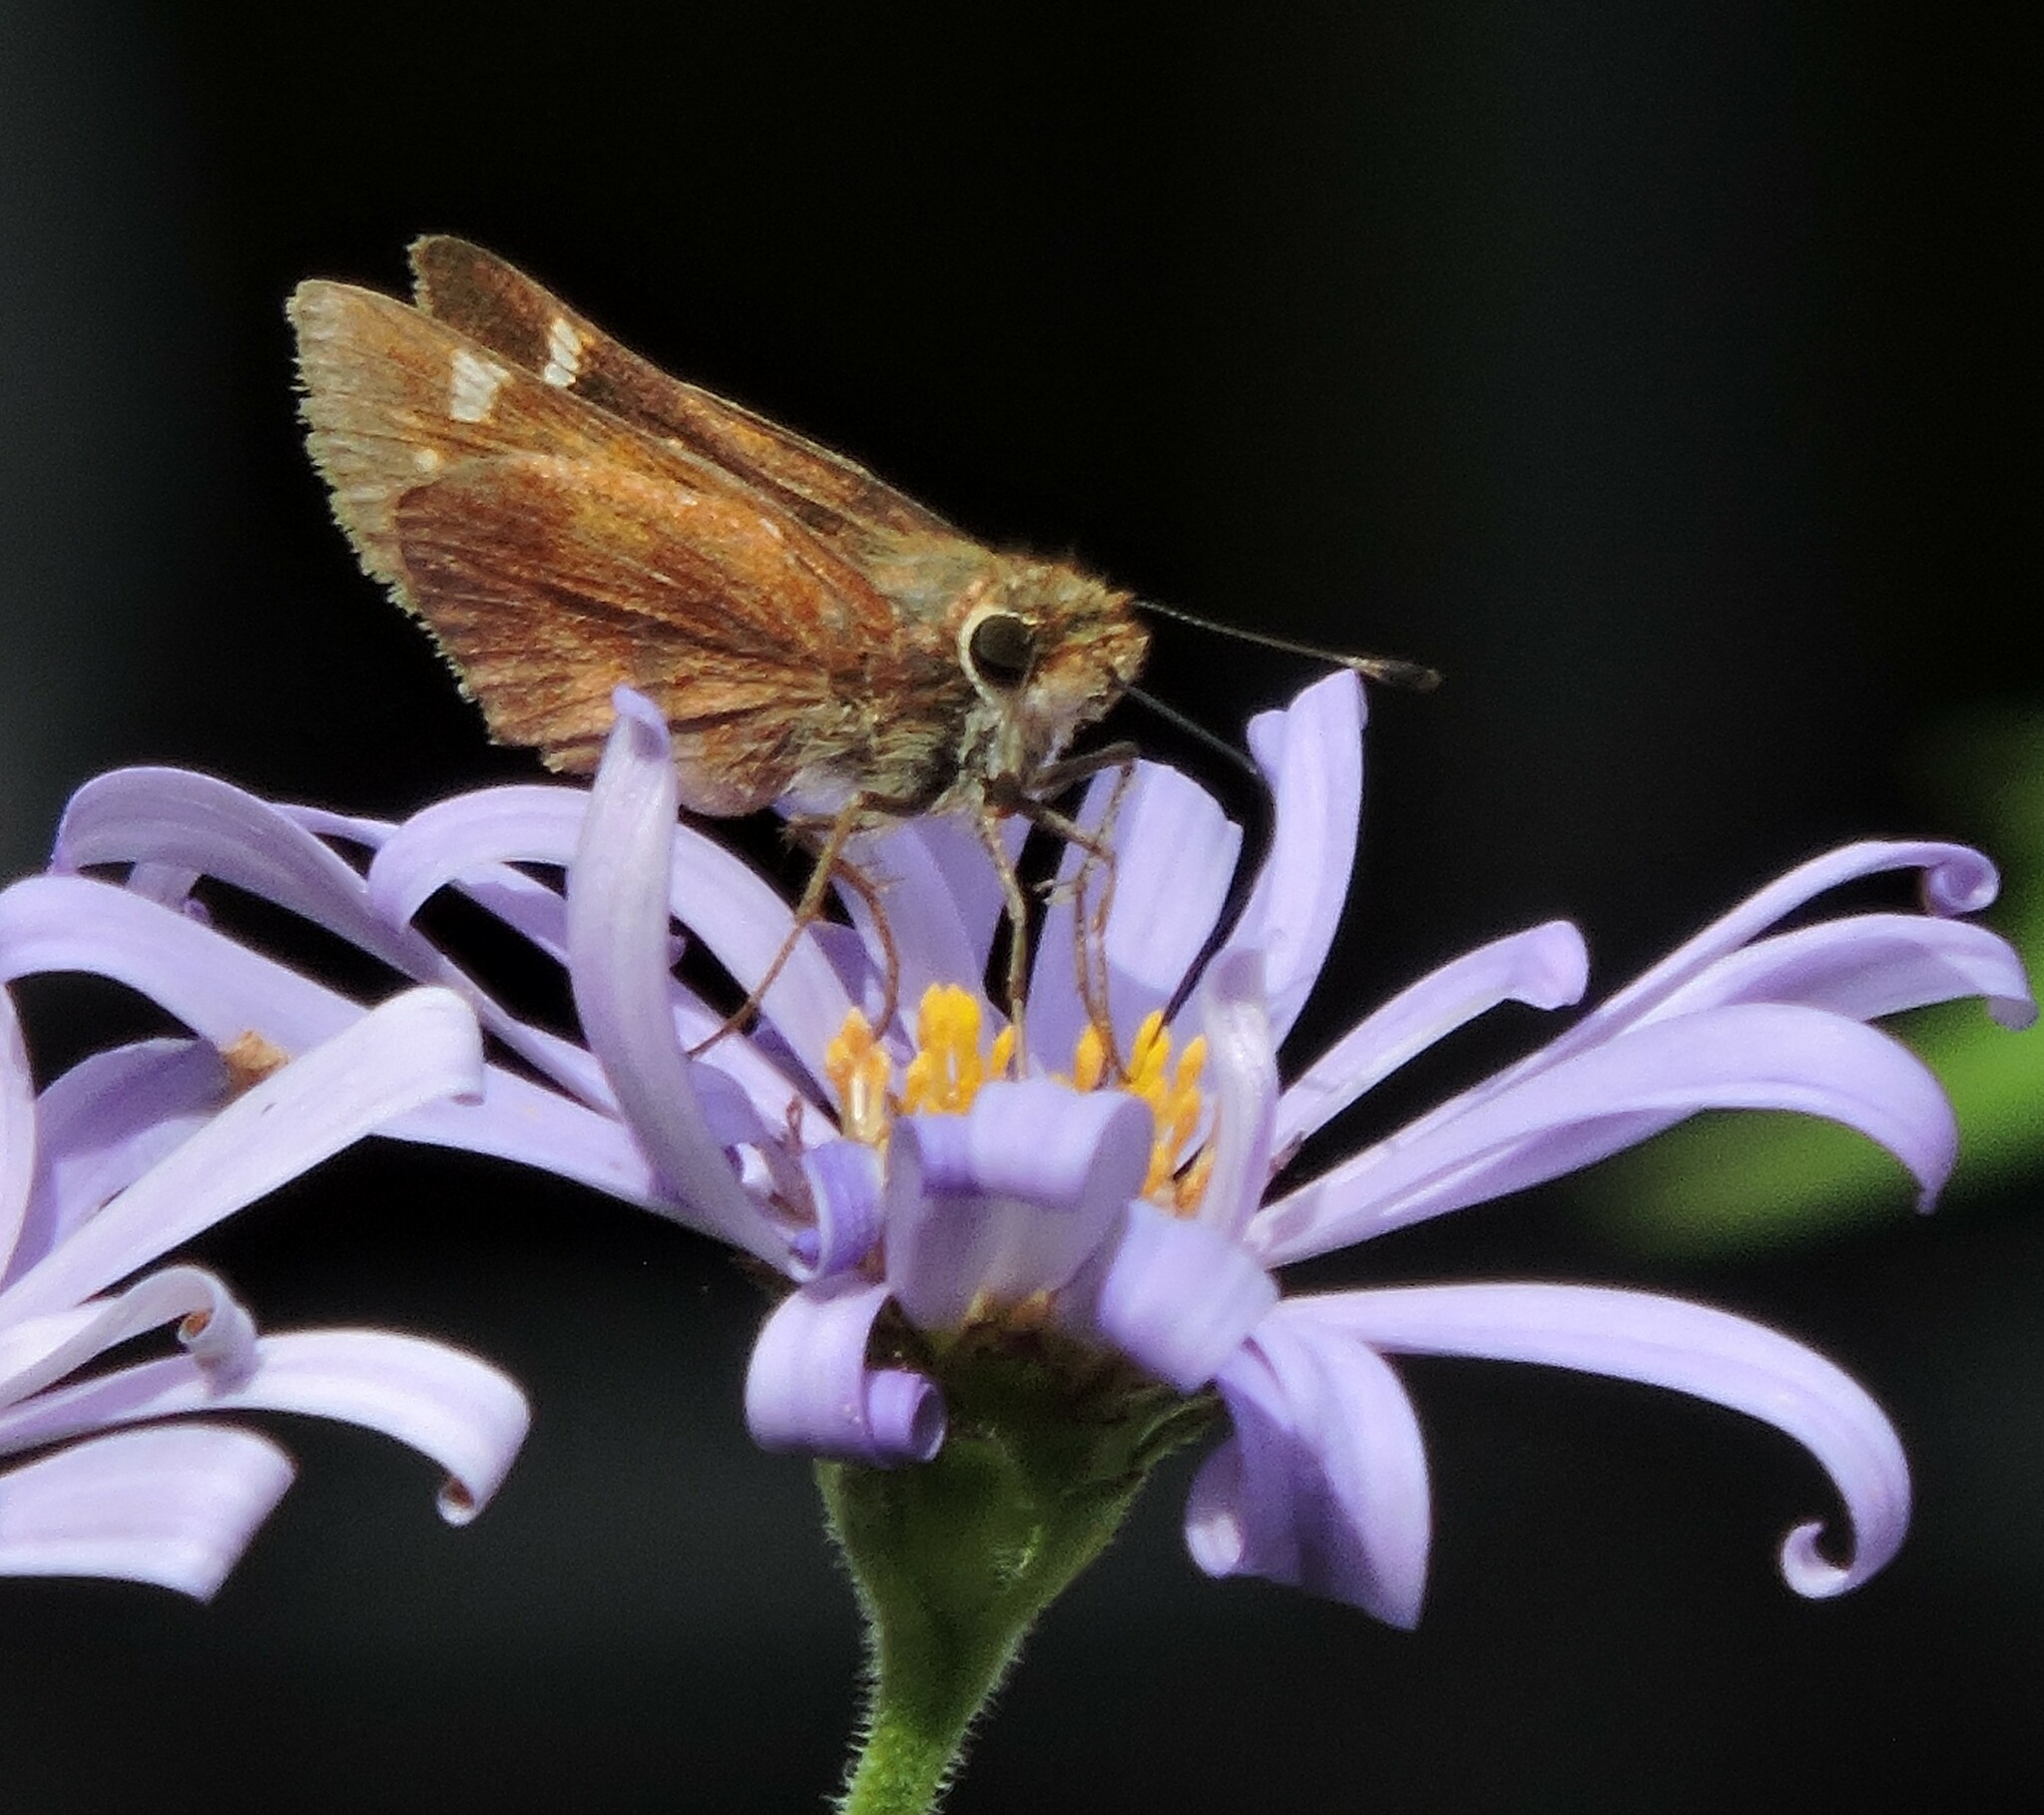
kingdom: Animalia
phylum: Arthropoda
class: Insecta
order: Lepidoptera
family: Hesperiidae
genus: Lon
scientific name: Lon melane
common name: Umber skipper
